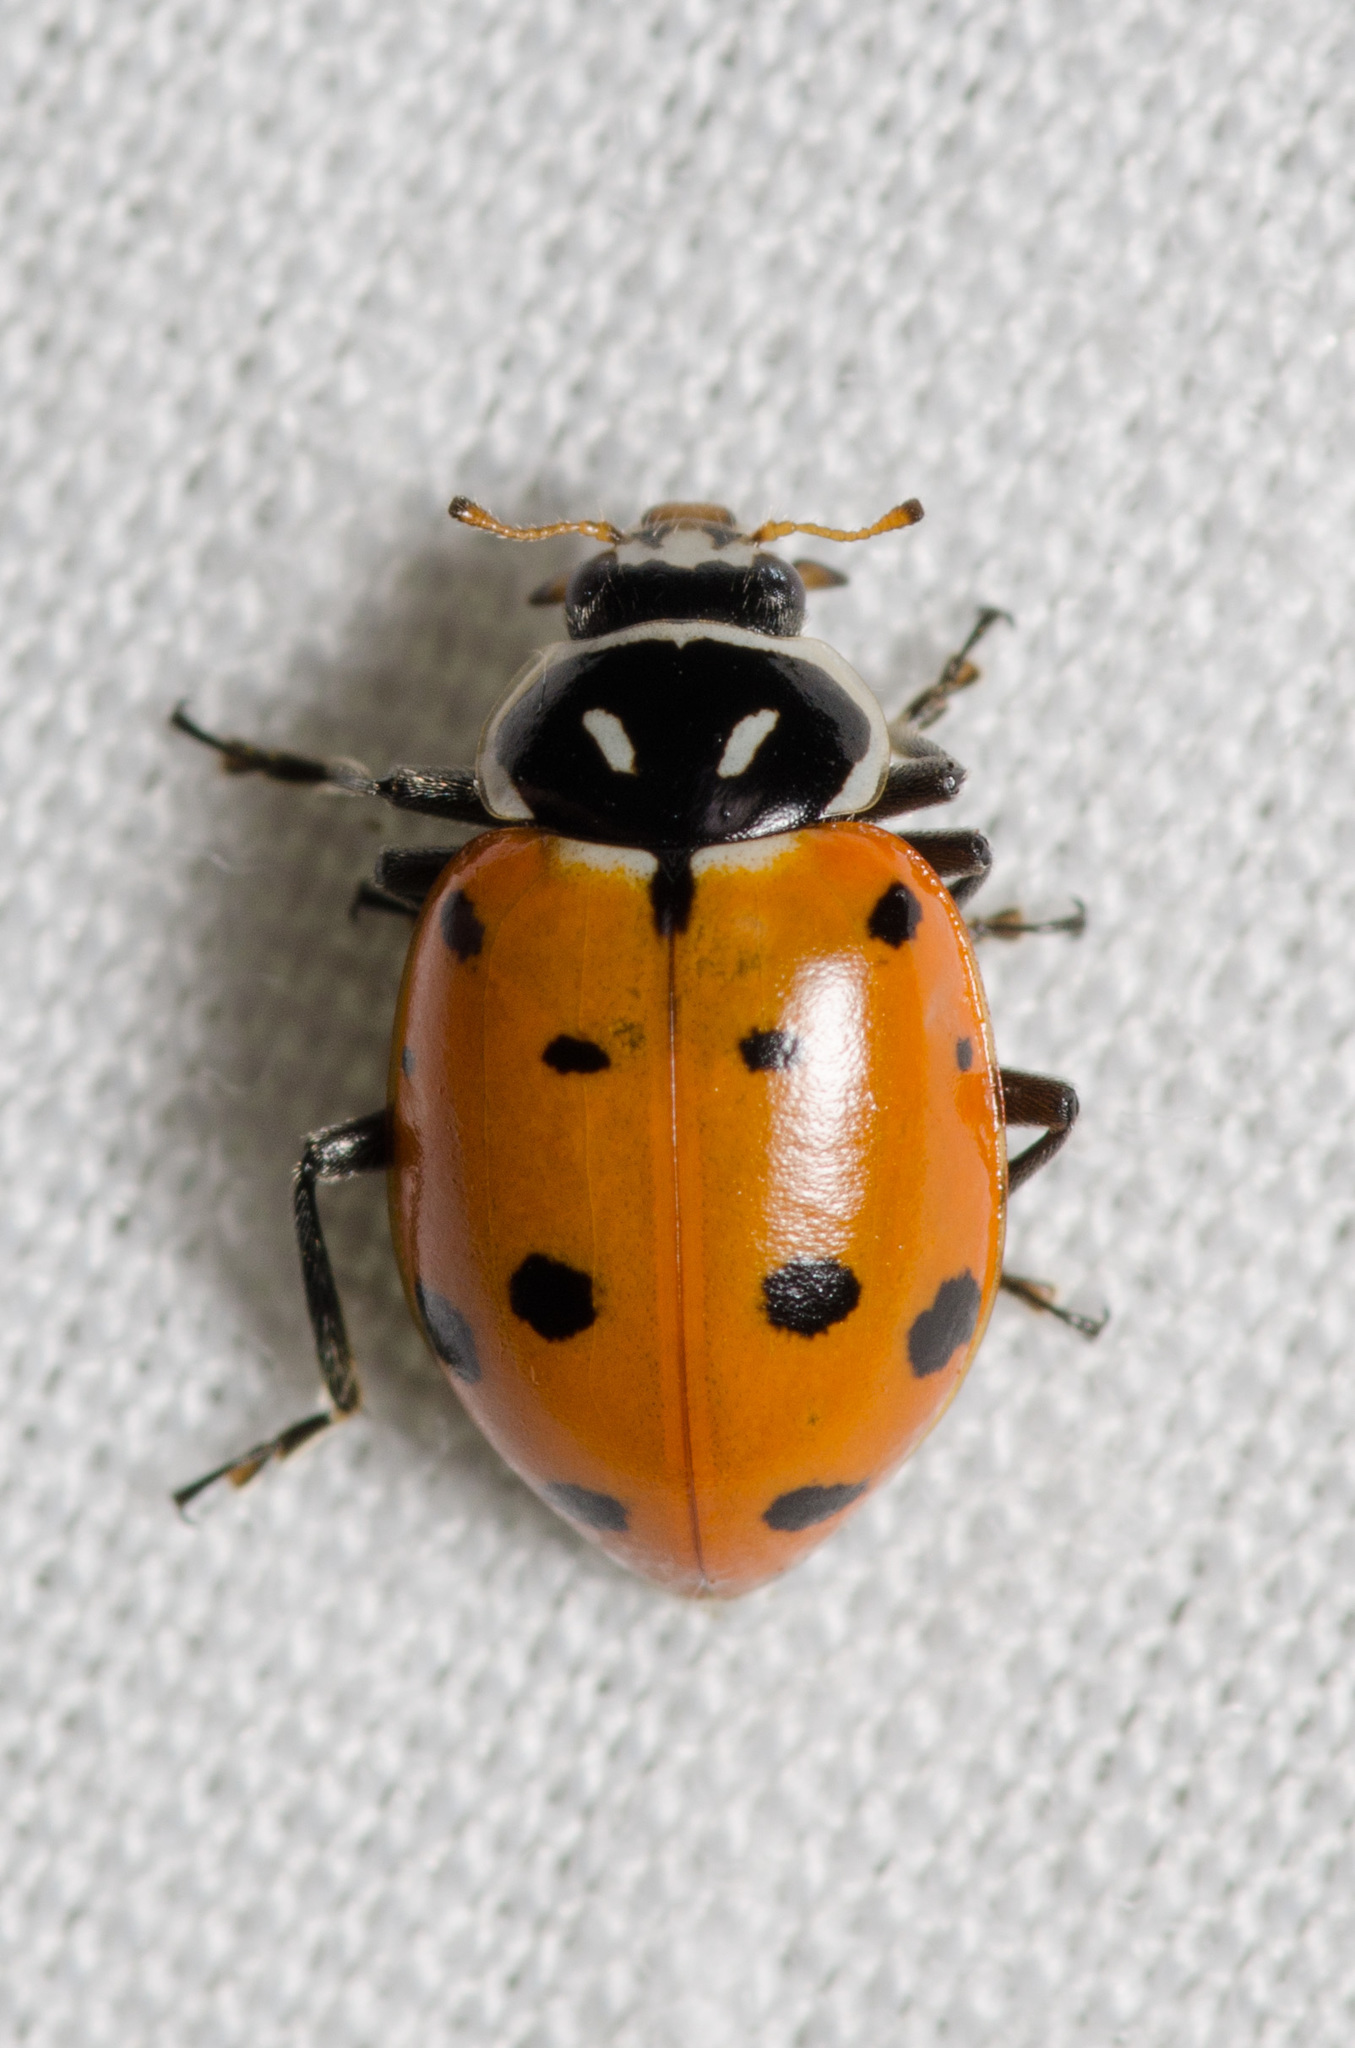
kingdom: Animalia
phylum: Arthropoda
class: Insecta
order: Coleoptera
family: Coccinellidae
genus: Hippodamia
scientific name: Hippodamia convergens
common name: Convergent lady beetle
